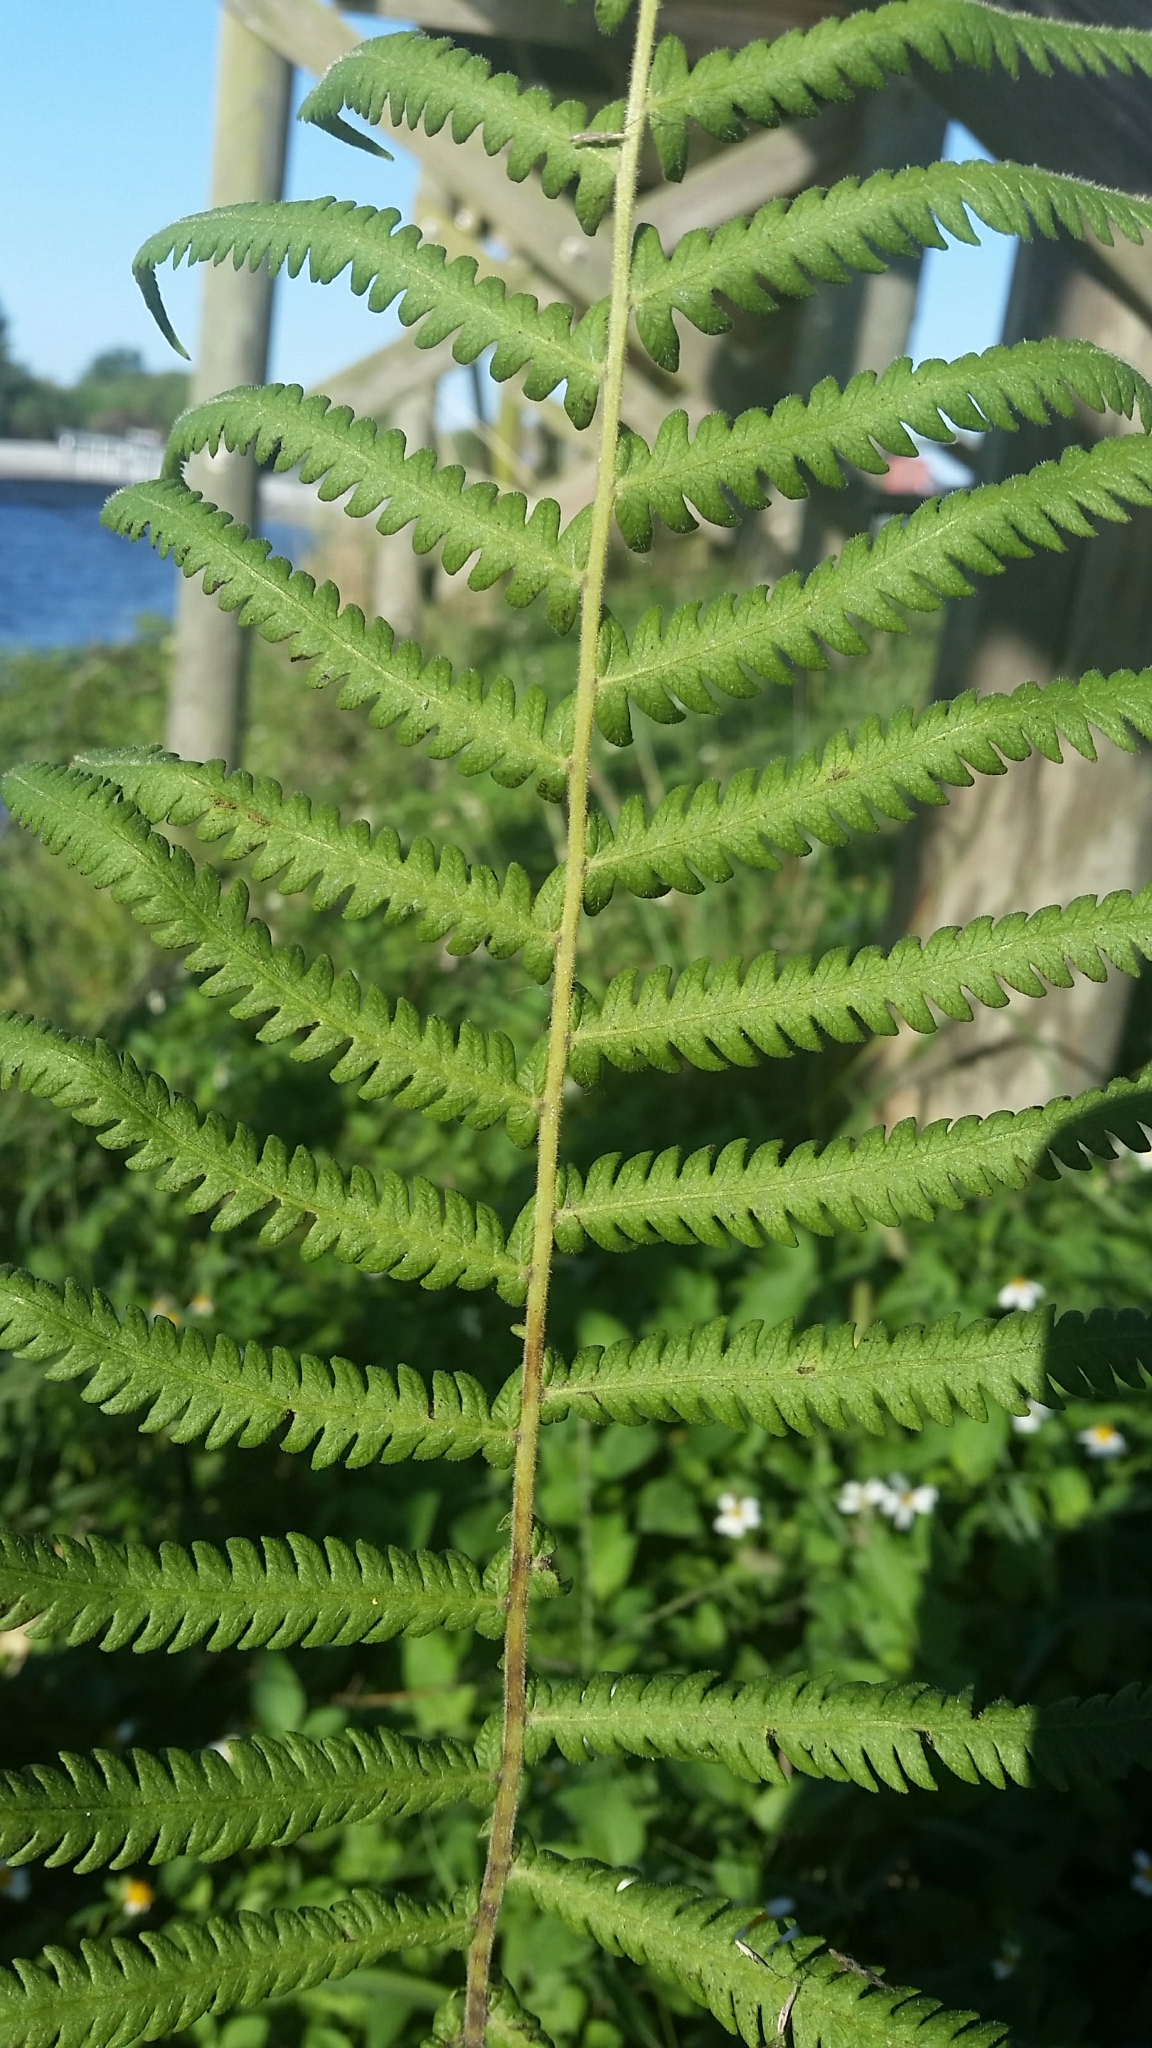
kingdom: Plantae
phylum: Tracheophyta
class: Polypodiopsida
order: Polypodiales
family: Thelypteridaceae
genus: Pelazoneuron
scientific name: Pelazoneuron kunthii
